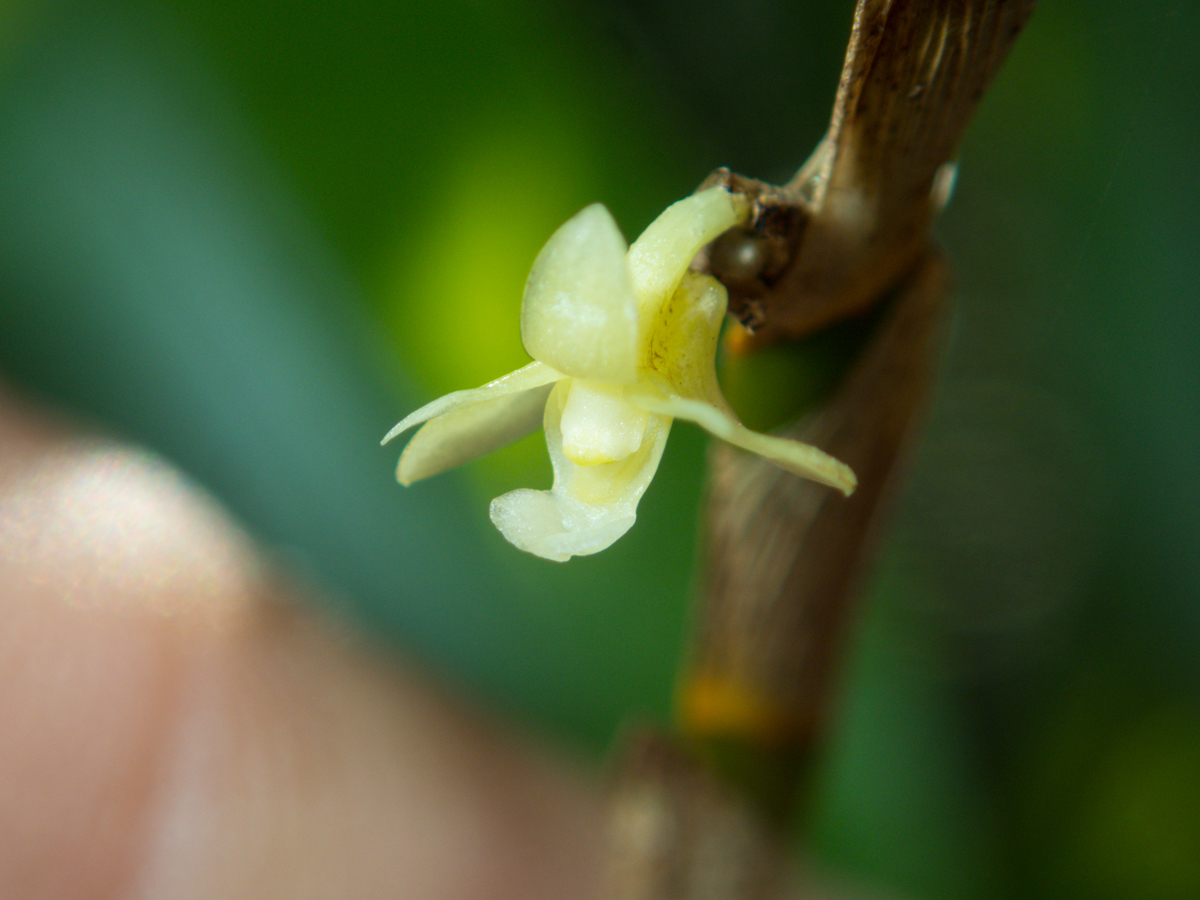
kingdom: Plantae
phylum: Tracheophyta
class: Liliopsida
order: Asparagales
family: Orchidaceae
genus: Dendrobium
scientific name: Dendrobium aloifolium
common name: Aloe-like dendrobium
